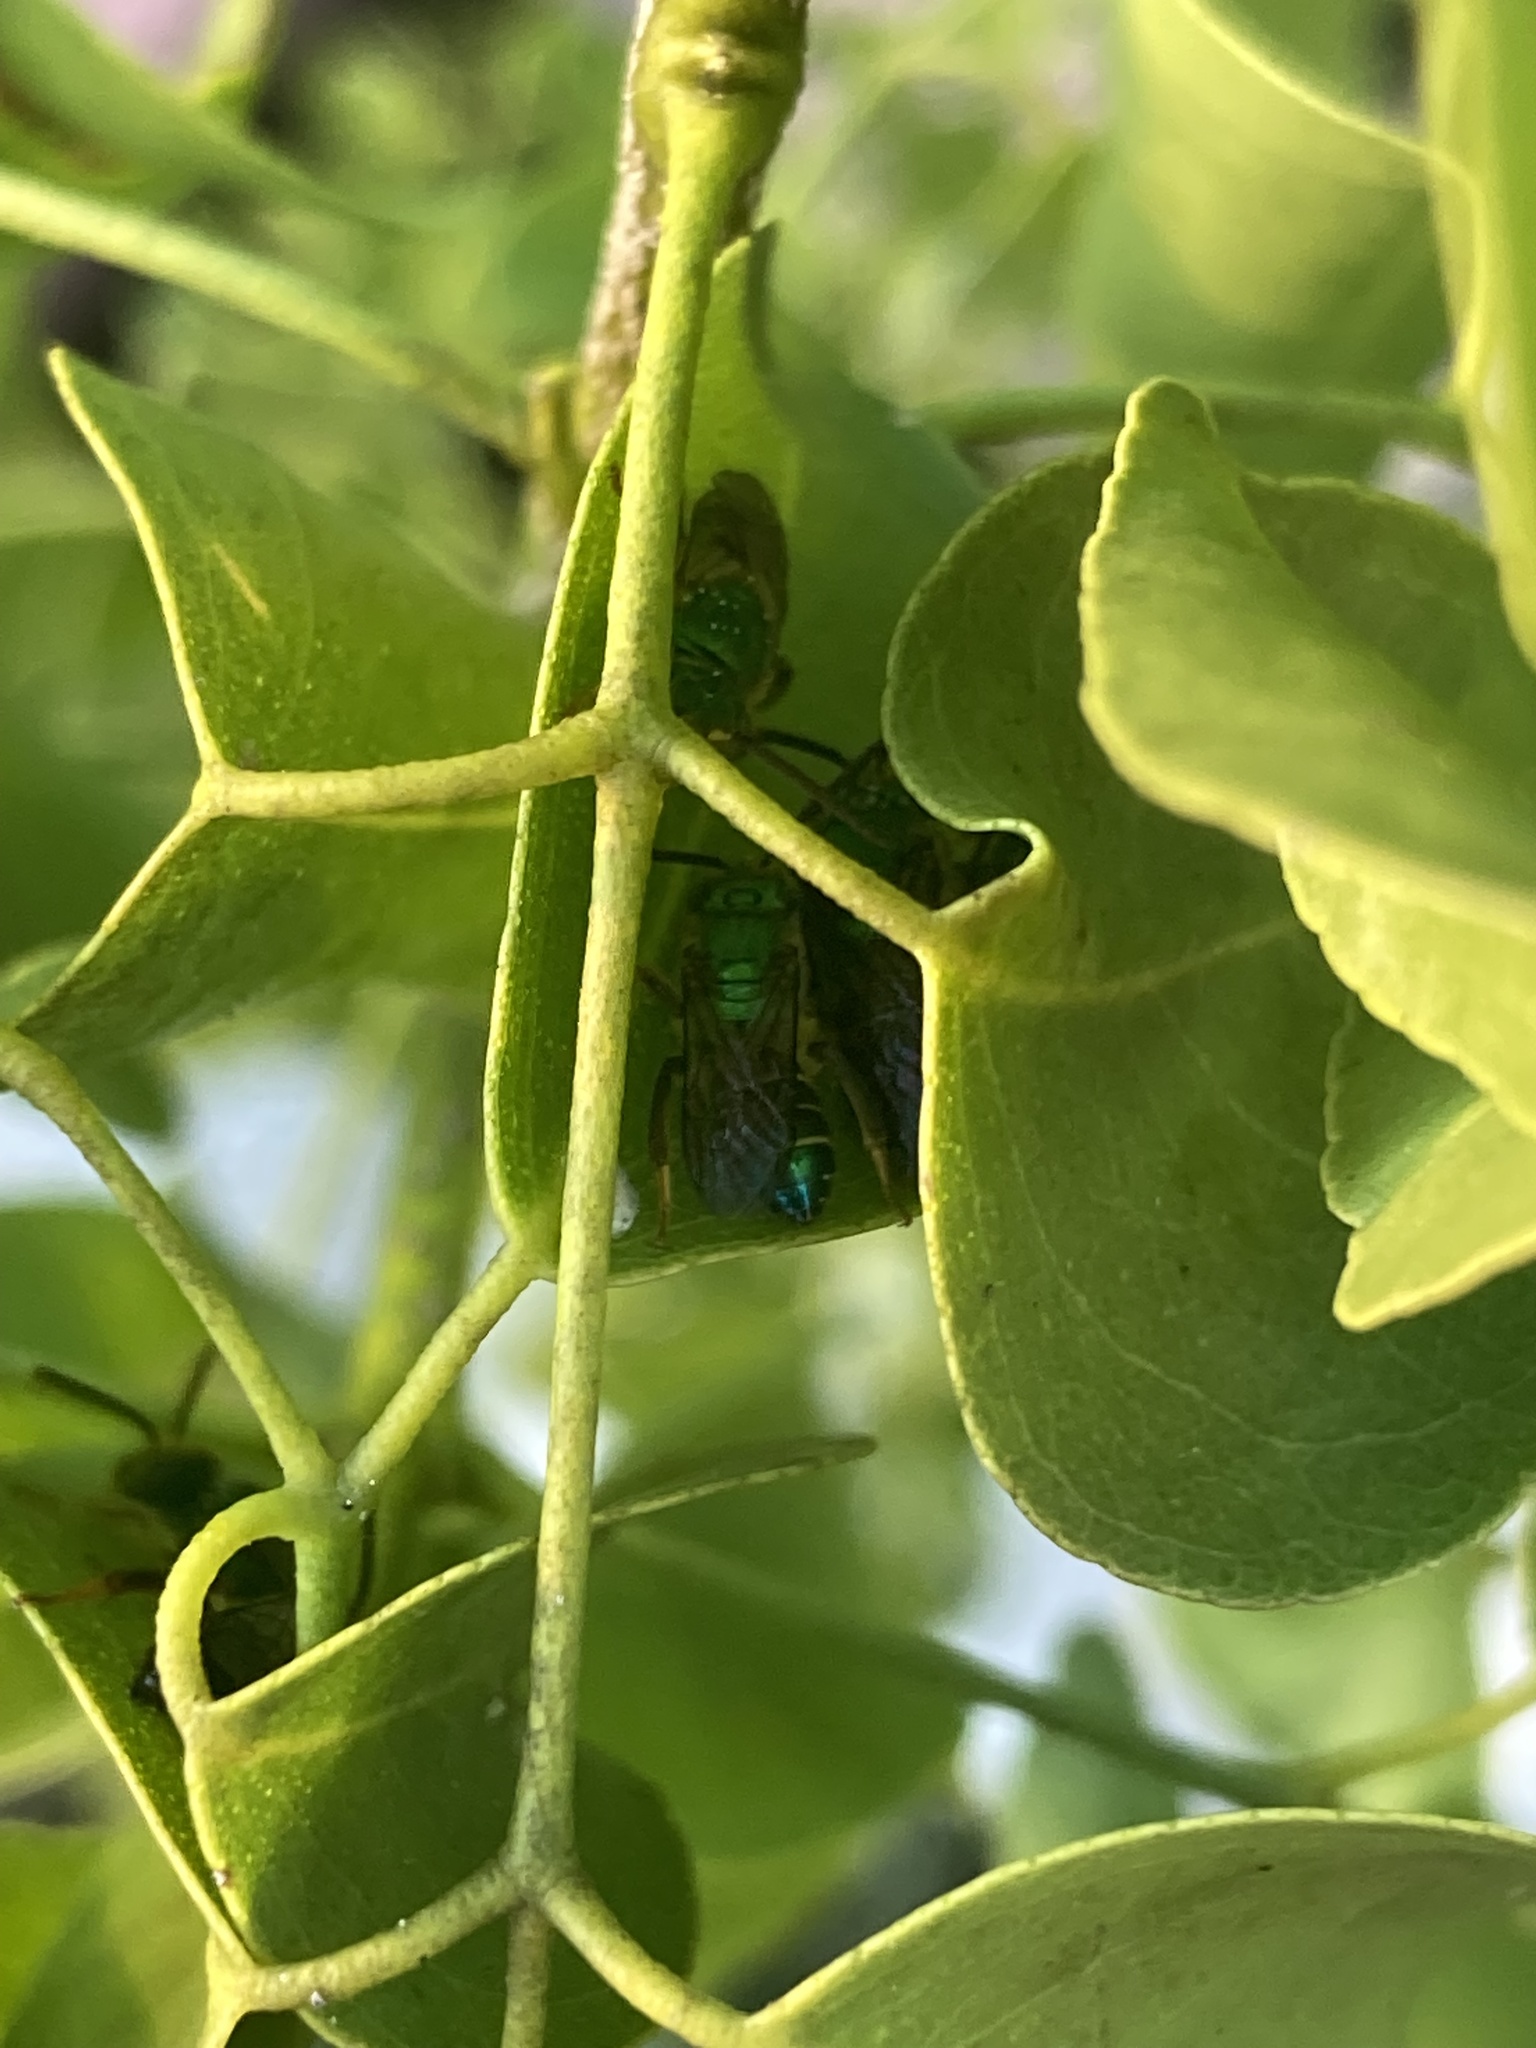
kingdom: Animalia
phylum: Arthropoda
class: Insecta
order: Hymenoptera
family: Halictidae
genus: Agapostemon
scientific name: Agapostemon poeyi
